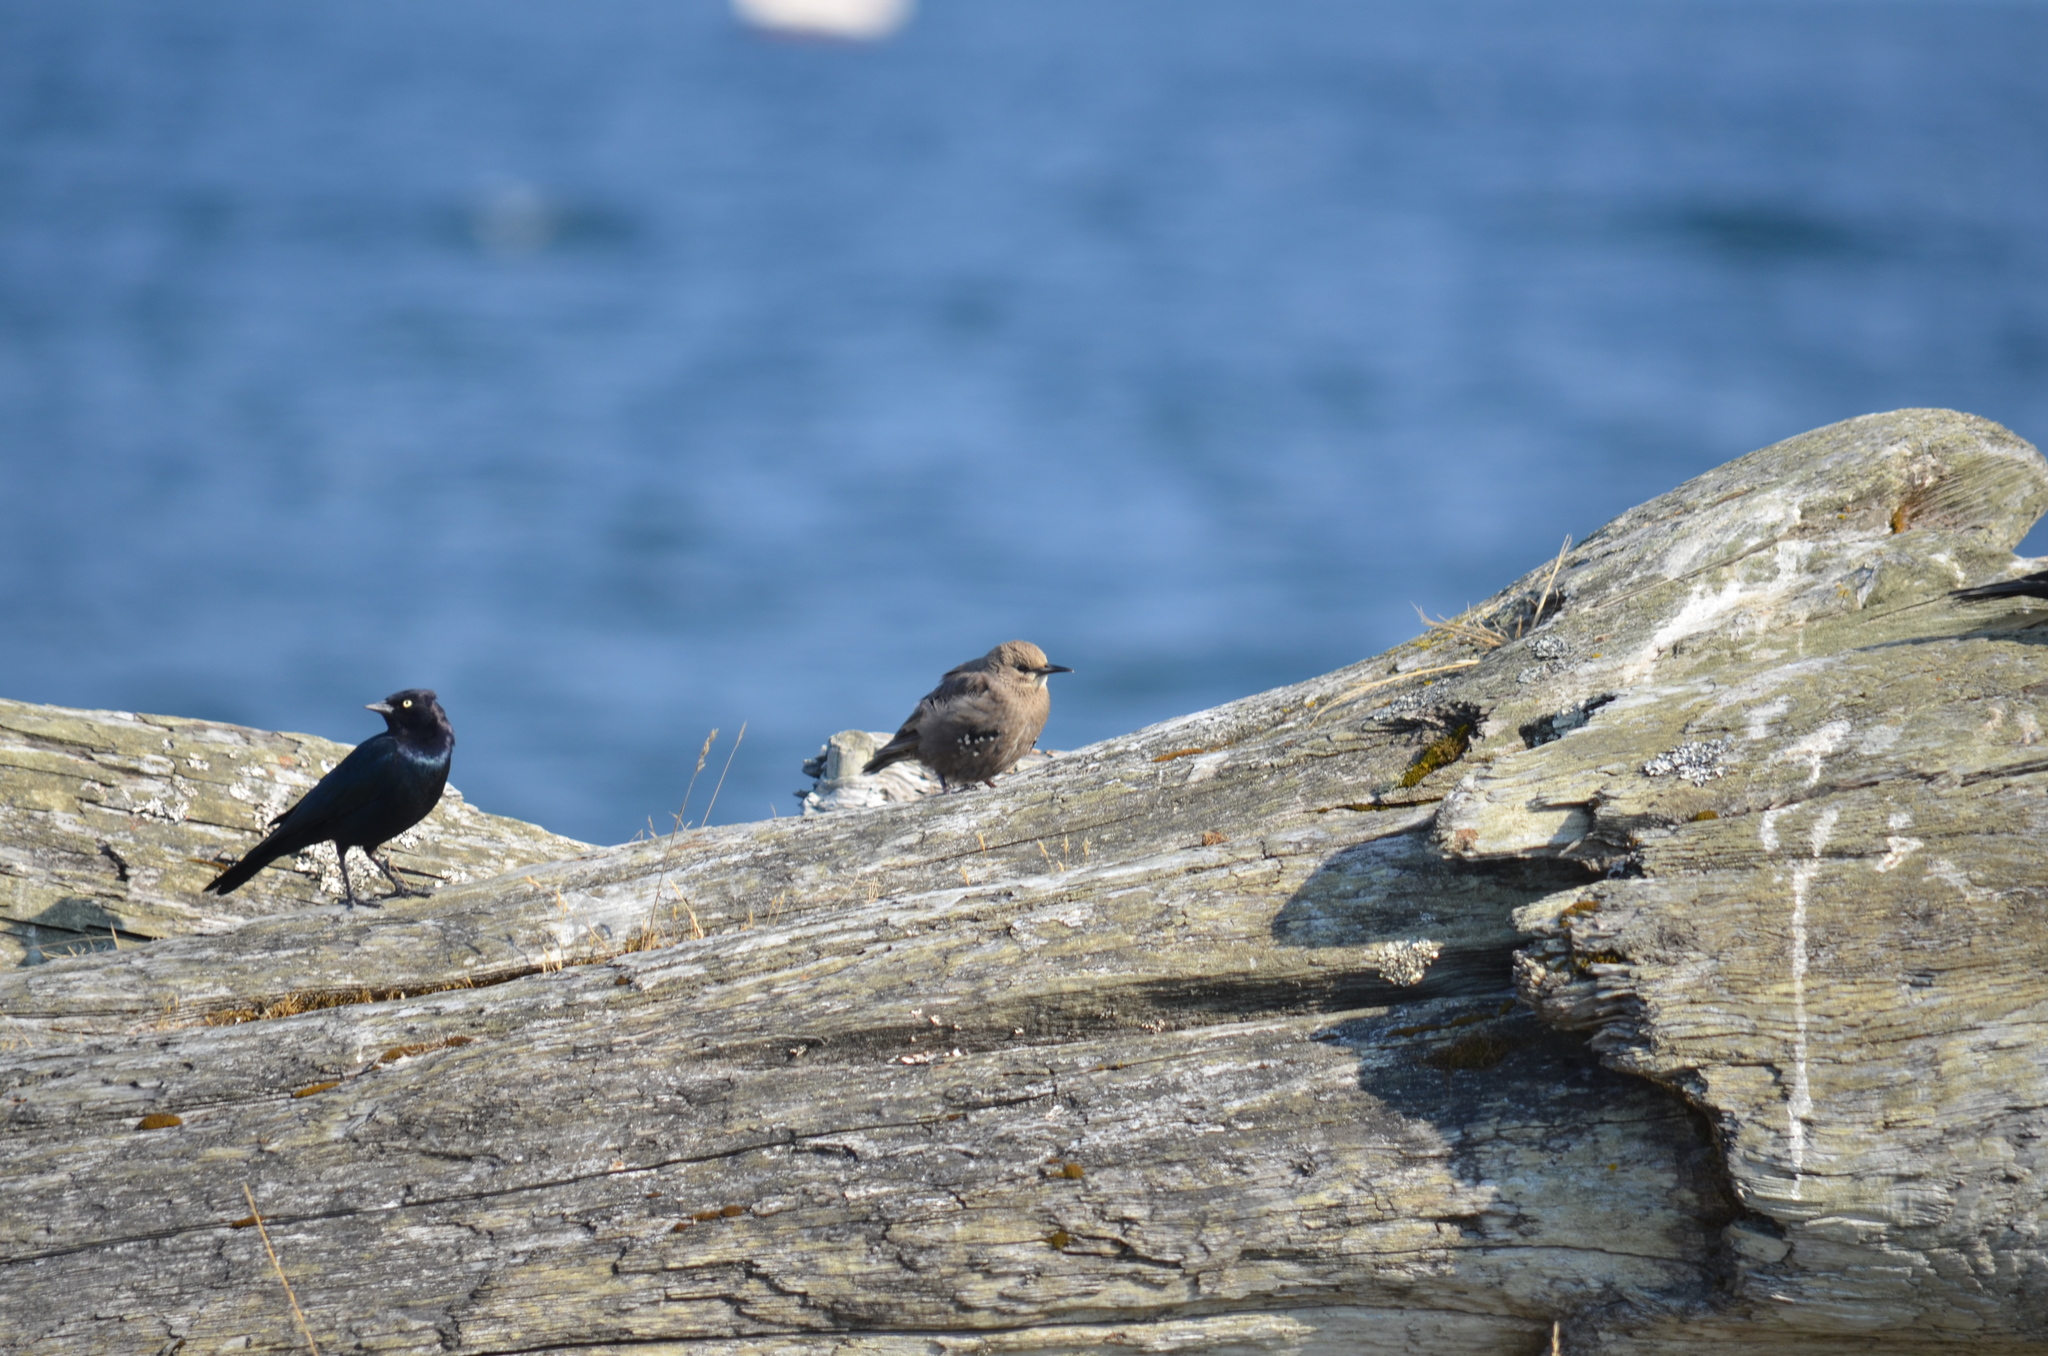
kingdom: Animalia
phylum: Chordata
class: Aves
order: Passeriformes
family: Sturnidae
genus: Sturnus
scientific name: Sturnus vulgaris
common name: Common starling
